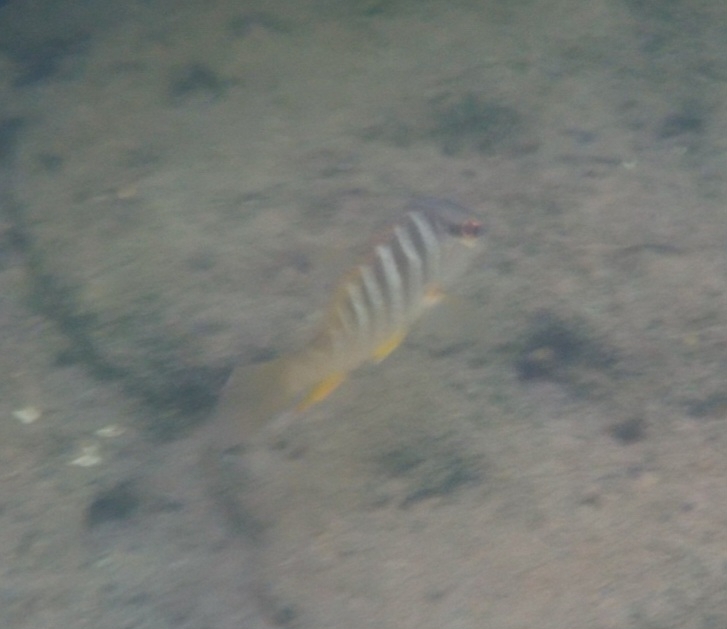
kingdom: Animalia
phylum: Chordata
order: Perciformes
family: Lutjanidae
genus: Lutjanus
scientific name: Lutjanus apodus
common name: Schoolmaster
